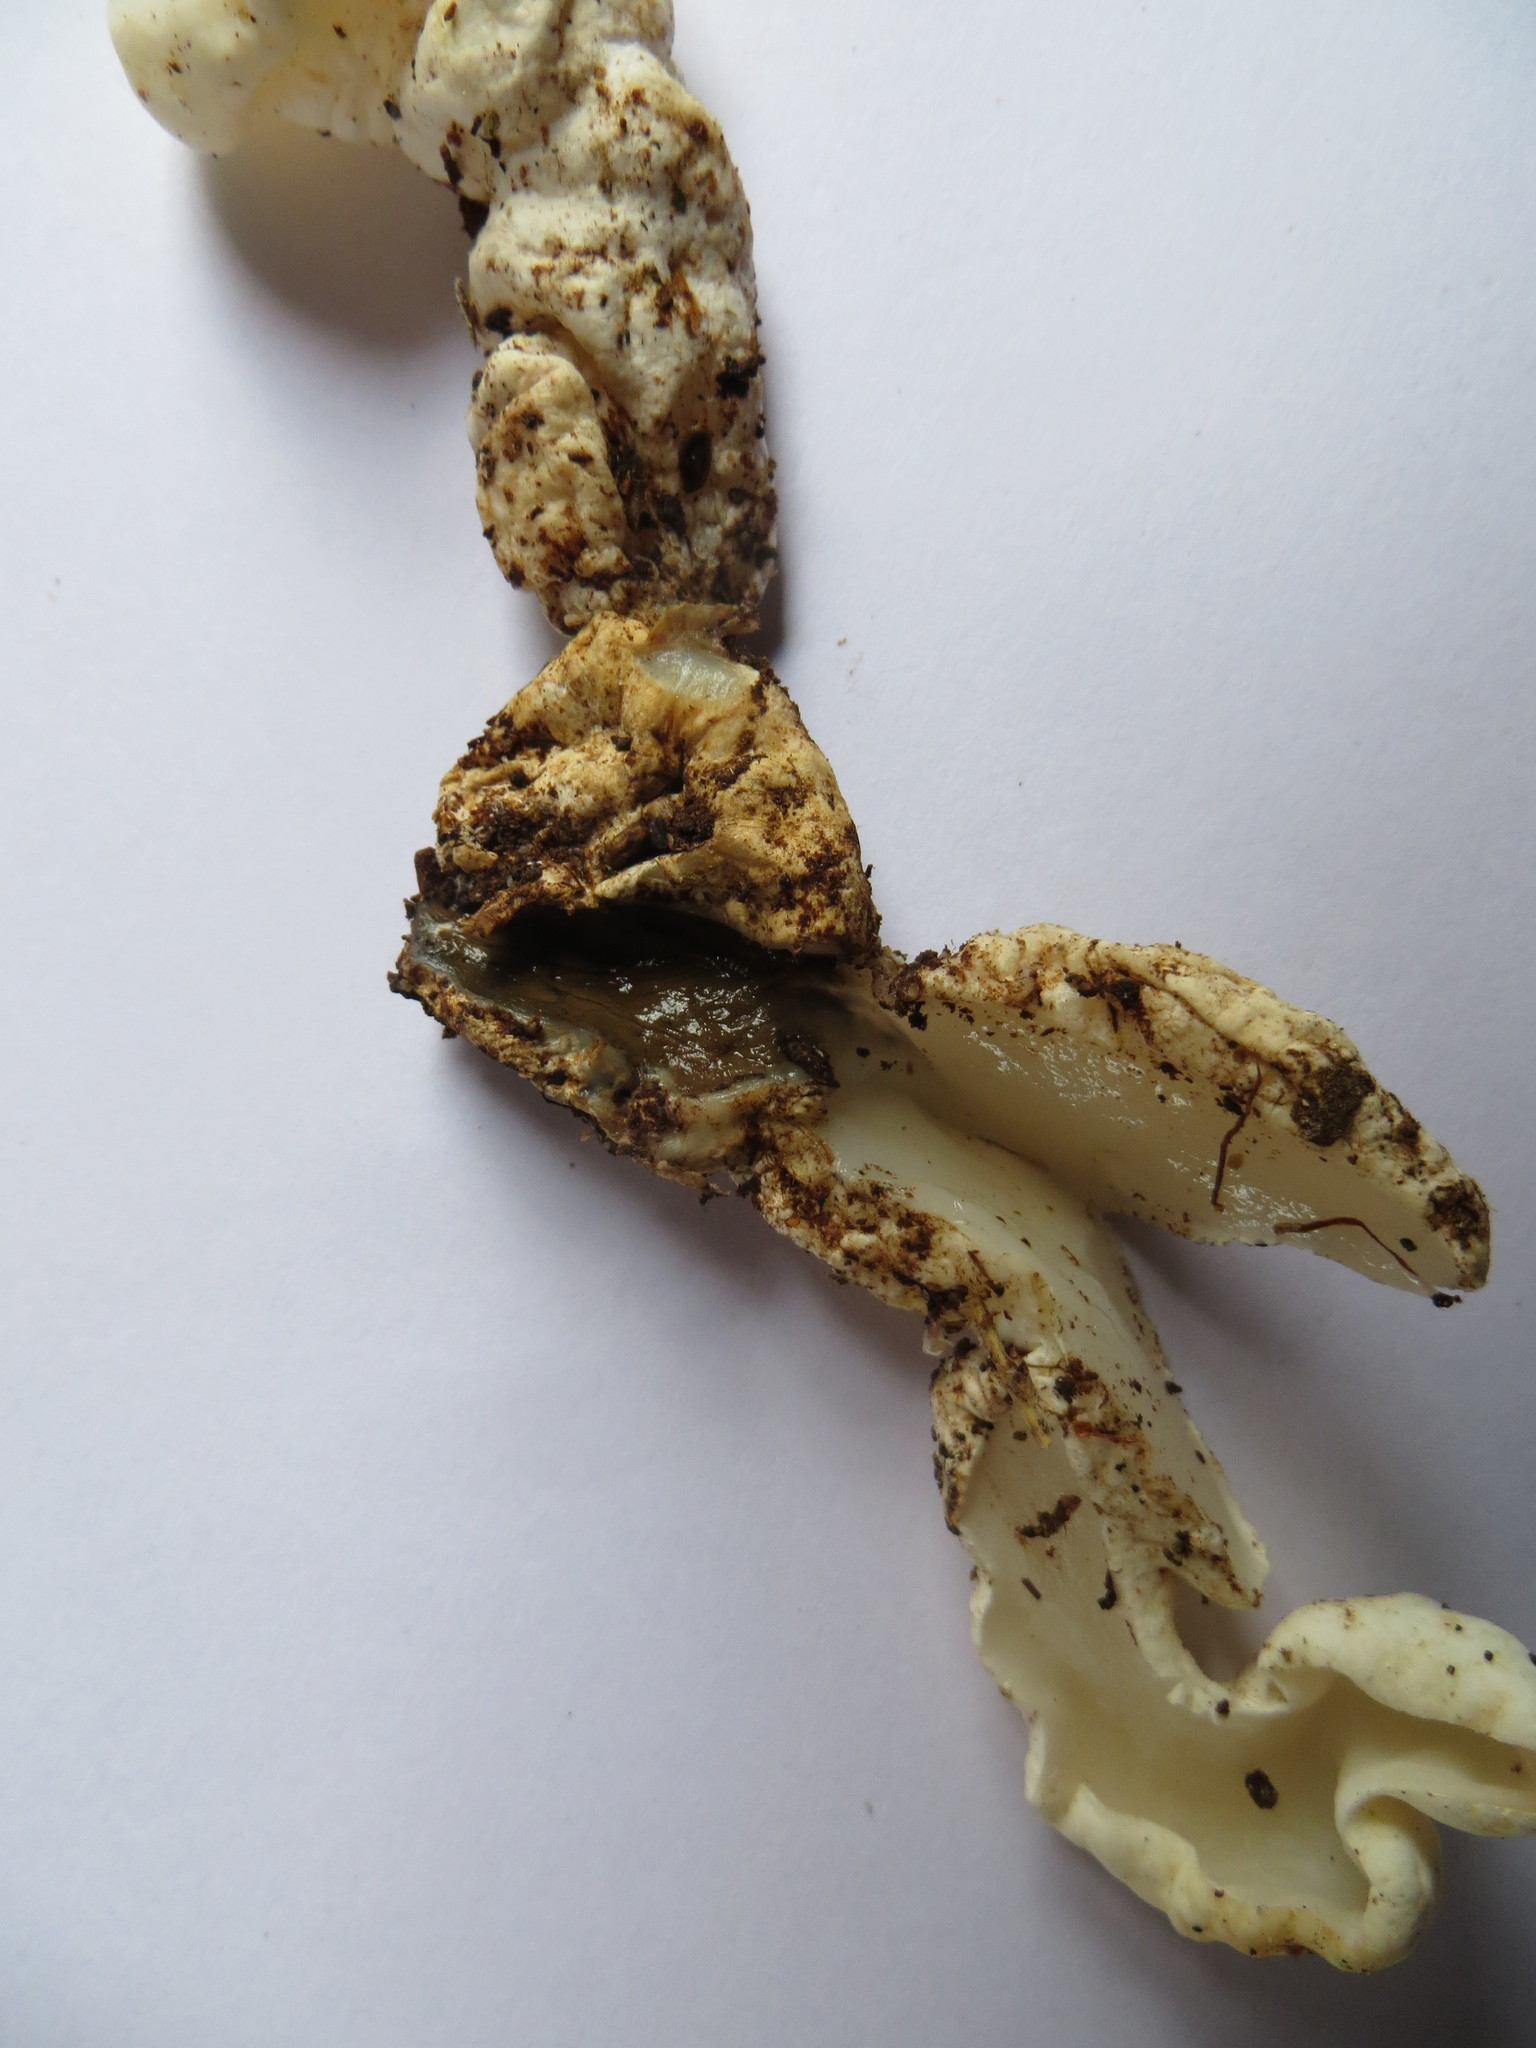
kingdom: Fungi
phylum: Basidiomycota
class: Agaricomycetes
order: Hysterangiales
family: Trappeaceae
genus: Phallobata
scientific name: Phallobata alba
